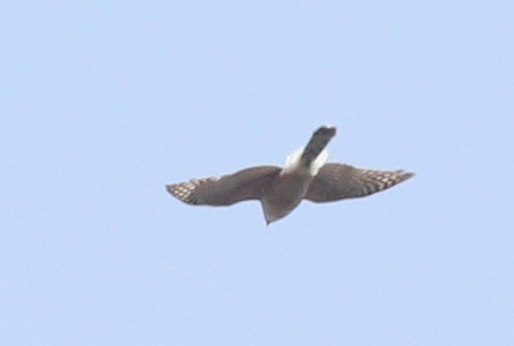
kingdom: Animalia
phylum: Chordata
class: Aves
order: Accipitriformes
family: Accipitridae
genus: Accipiter
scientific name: Accipiter cooperii
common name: Cooper's hawk
